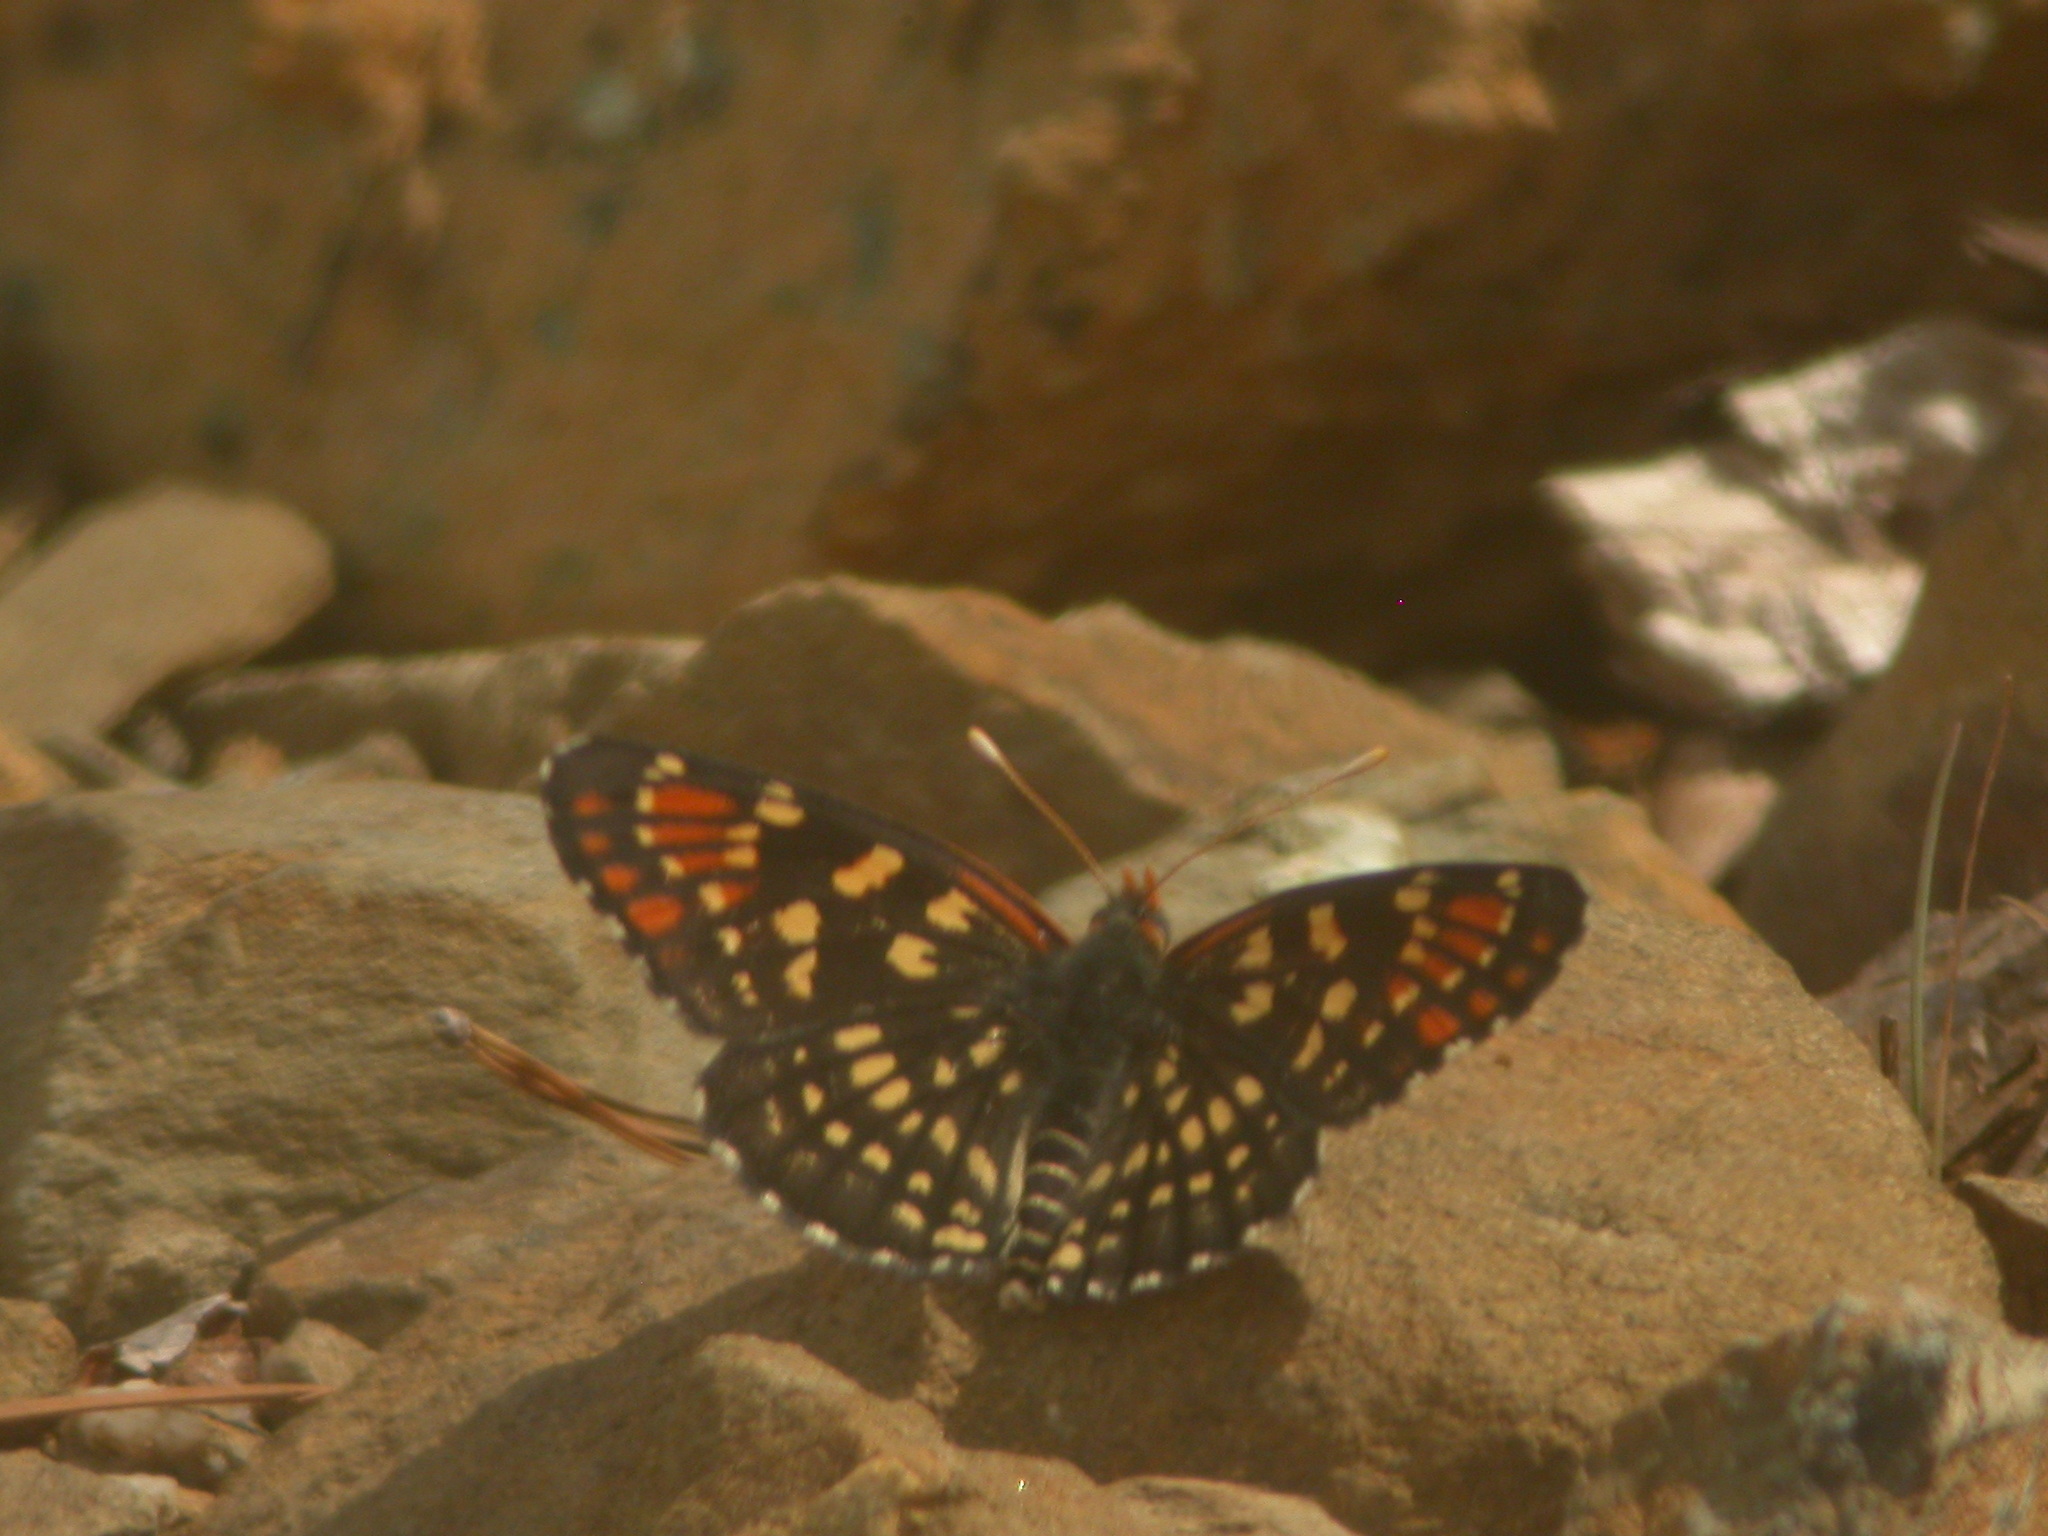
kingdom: Animalia
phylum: Arthropoda
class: Insecta
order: Lepidoptera
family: Nymphalidae
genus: Thessalia
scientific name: Thessalia leanira
